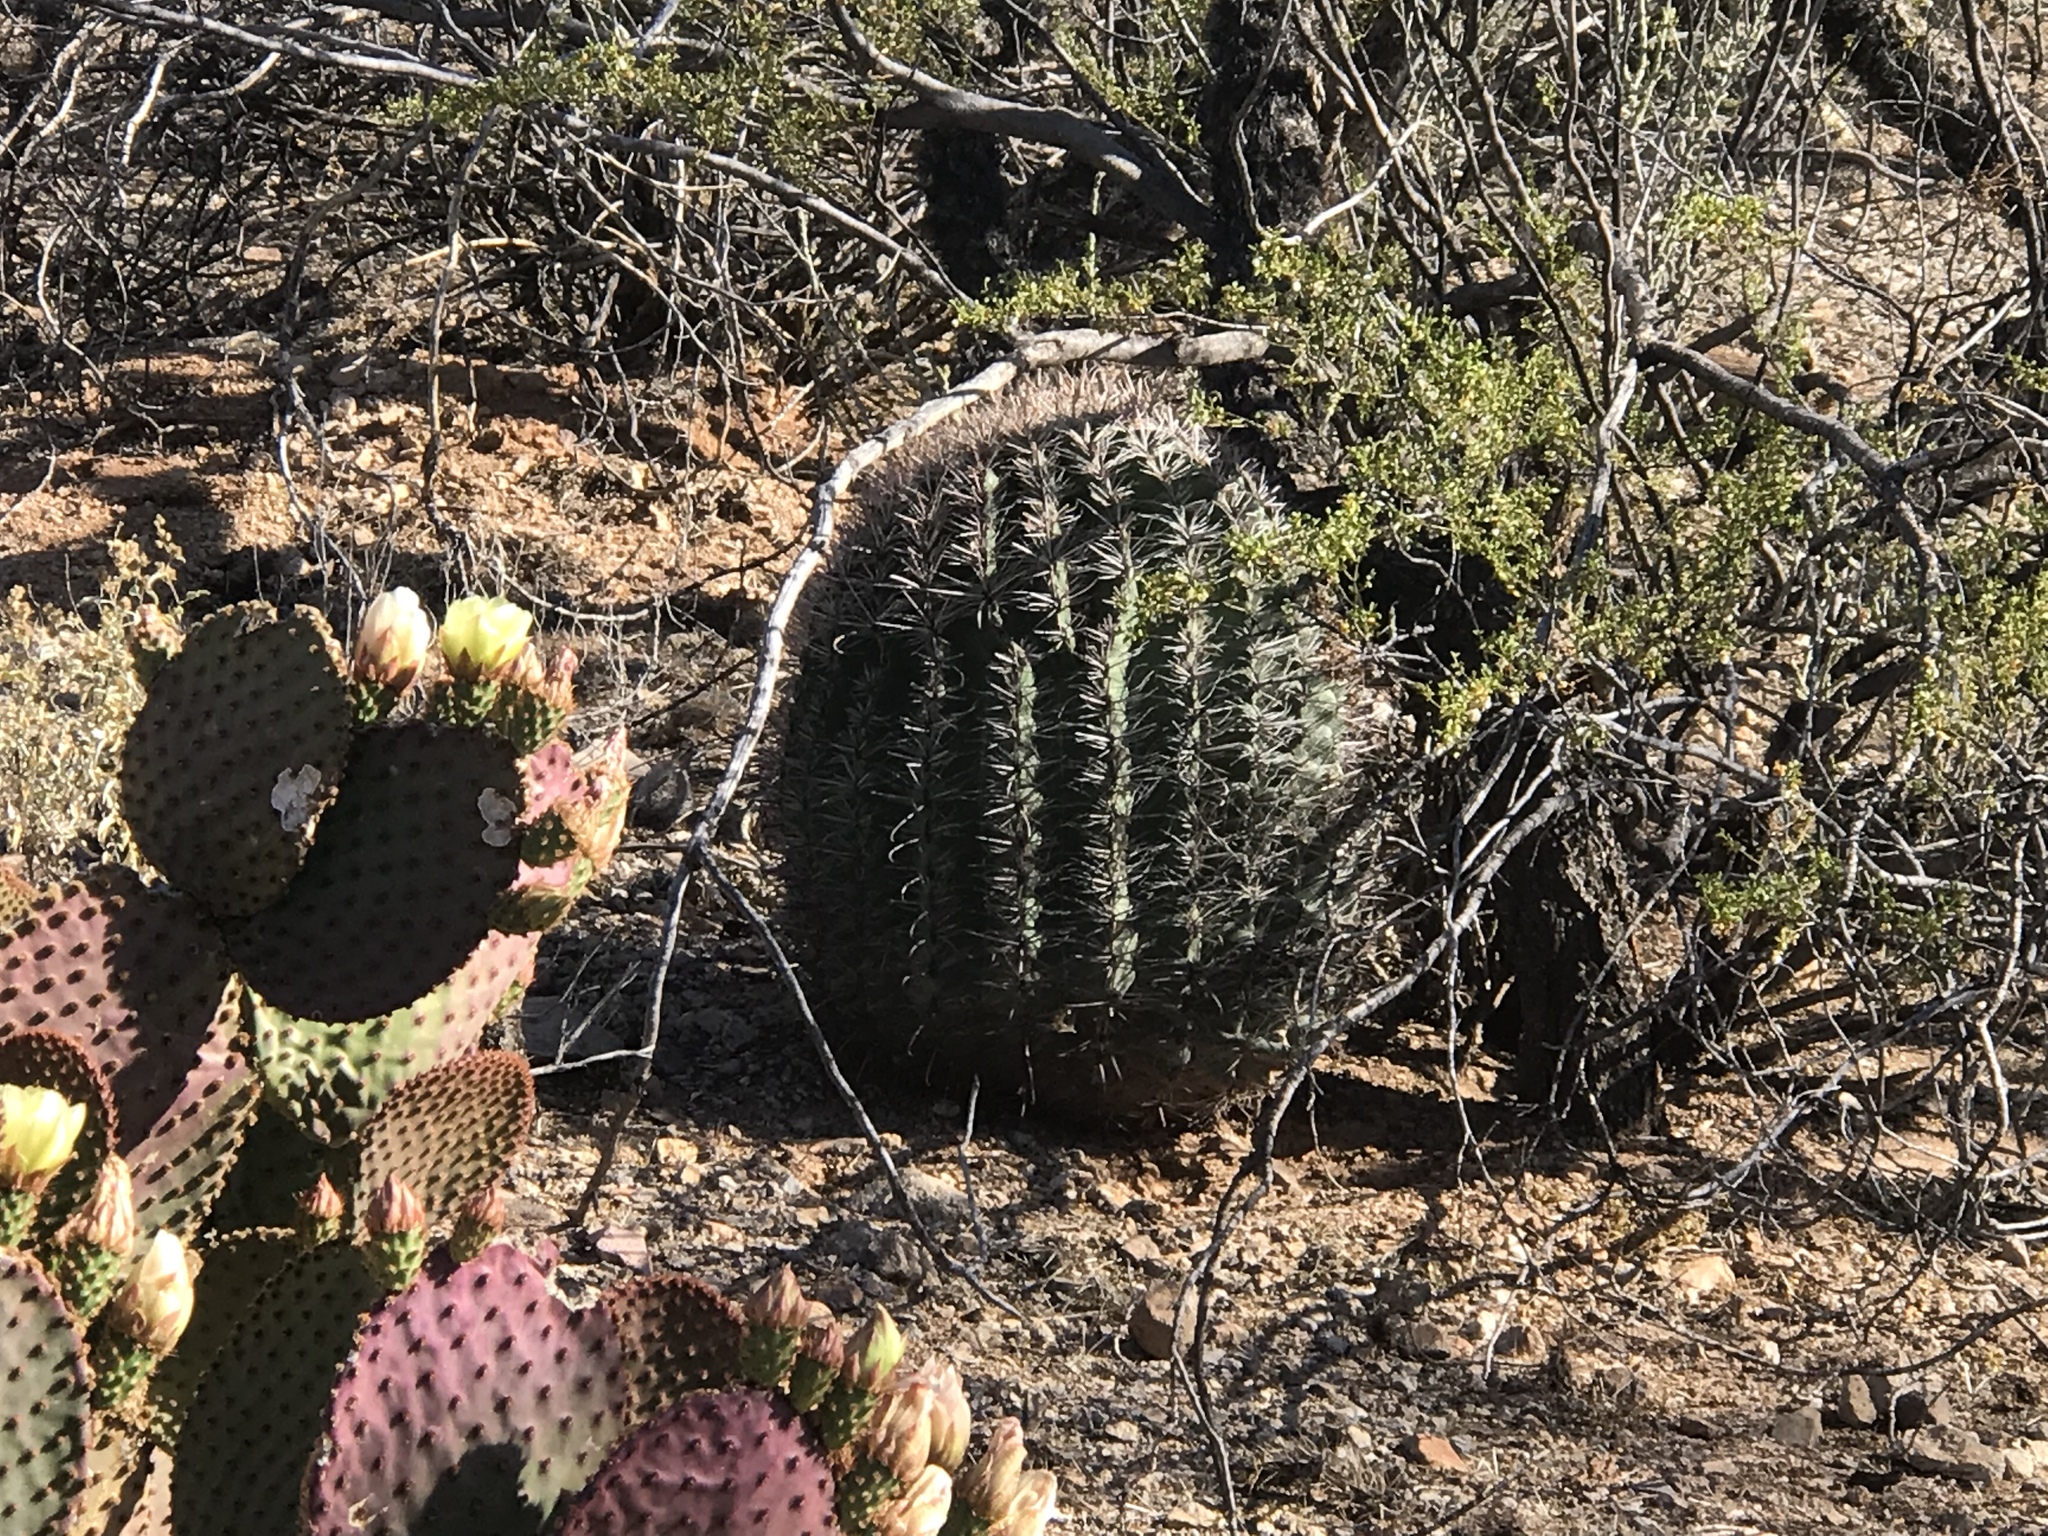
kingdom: Plantae
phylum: Tracheophyta
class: Magnoliopsida
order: Caryophyllales
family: Cactaceae
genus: Ferocactus
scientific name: Ferocactus wislizeni
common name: Candy barrel cactus
